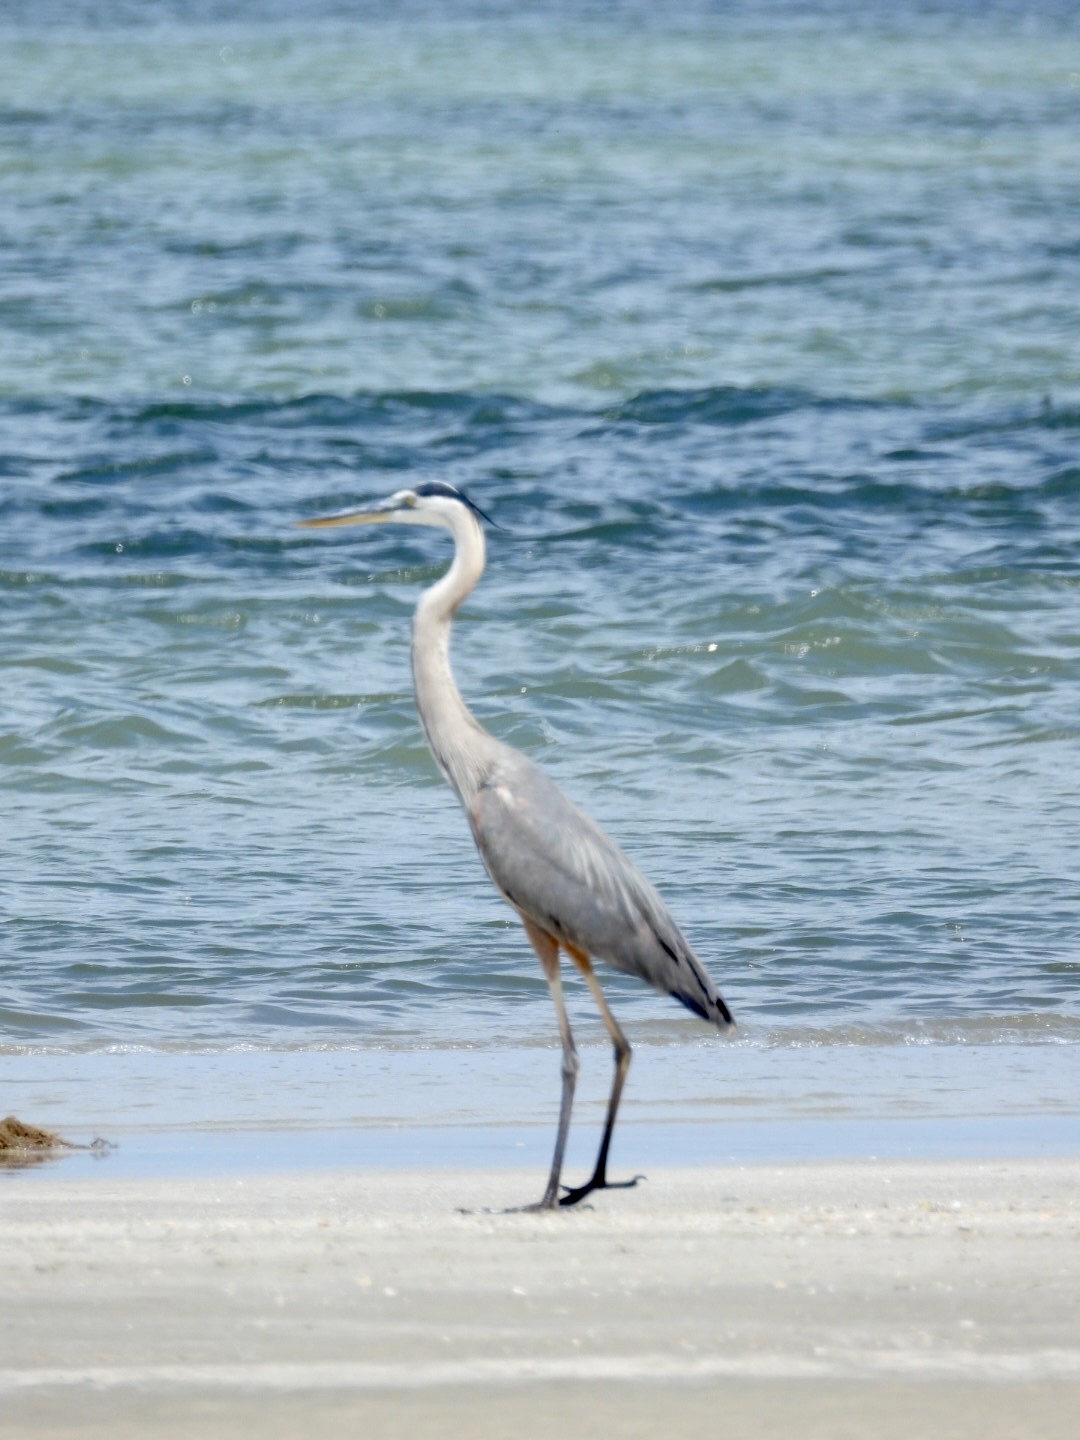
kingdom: Animalia
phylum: Chordata
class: Aves
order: Pelecaniformes
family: Ardeidae
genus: Ardea
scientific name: Ardea herodias
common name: Great blue heron
